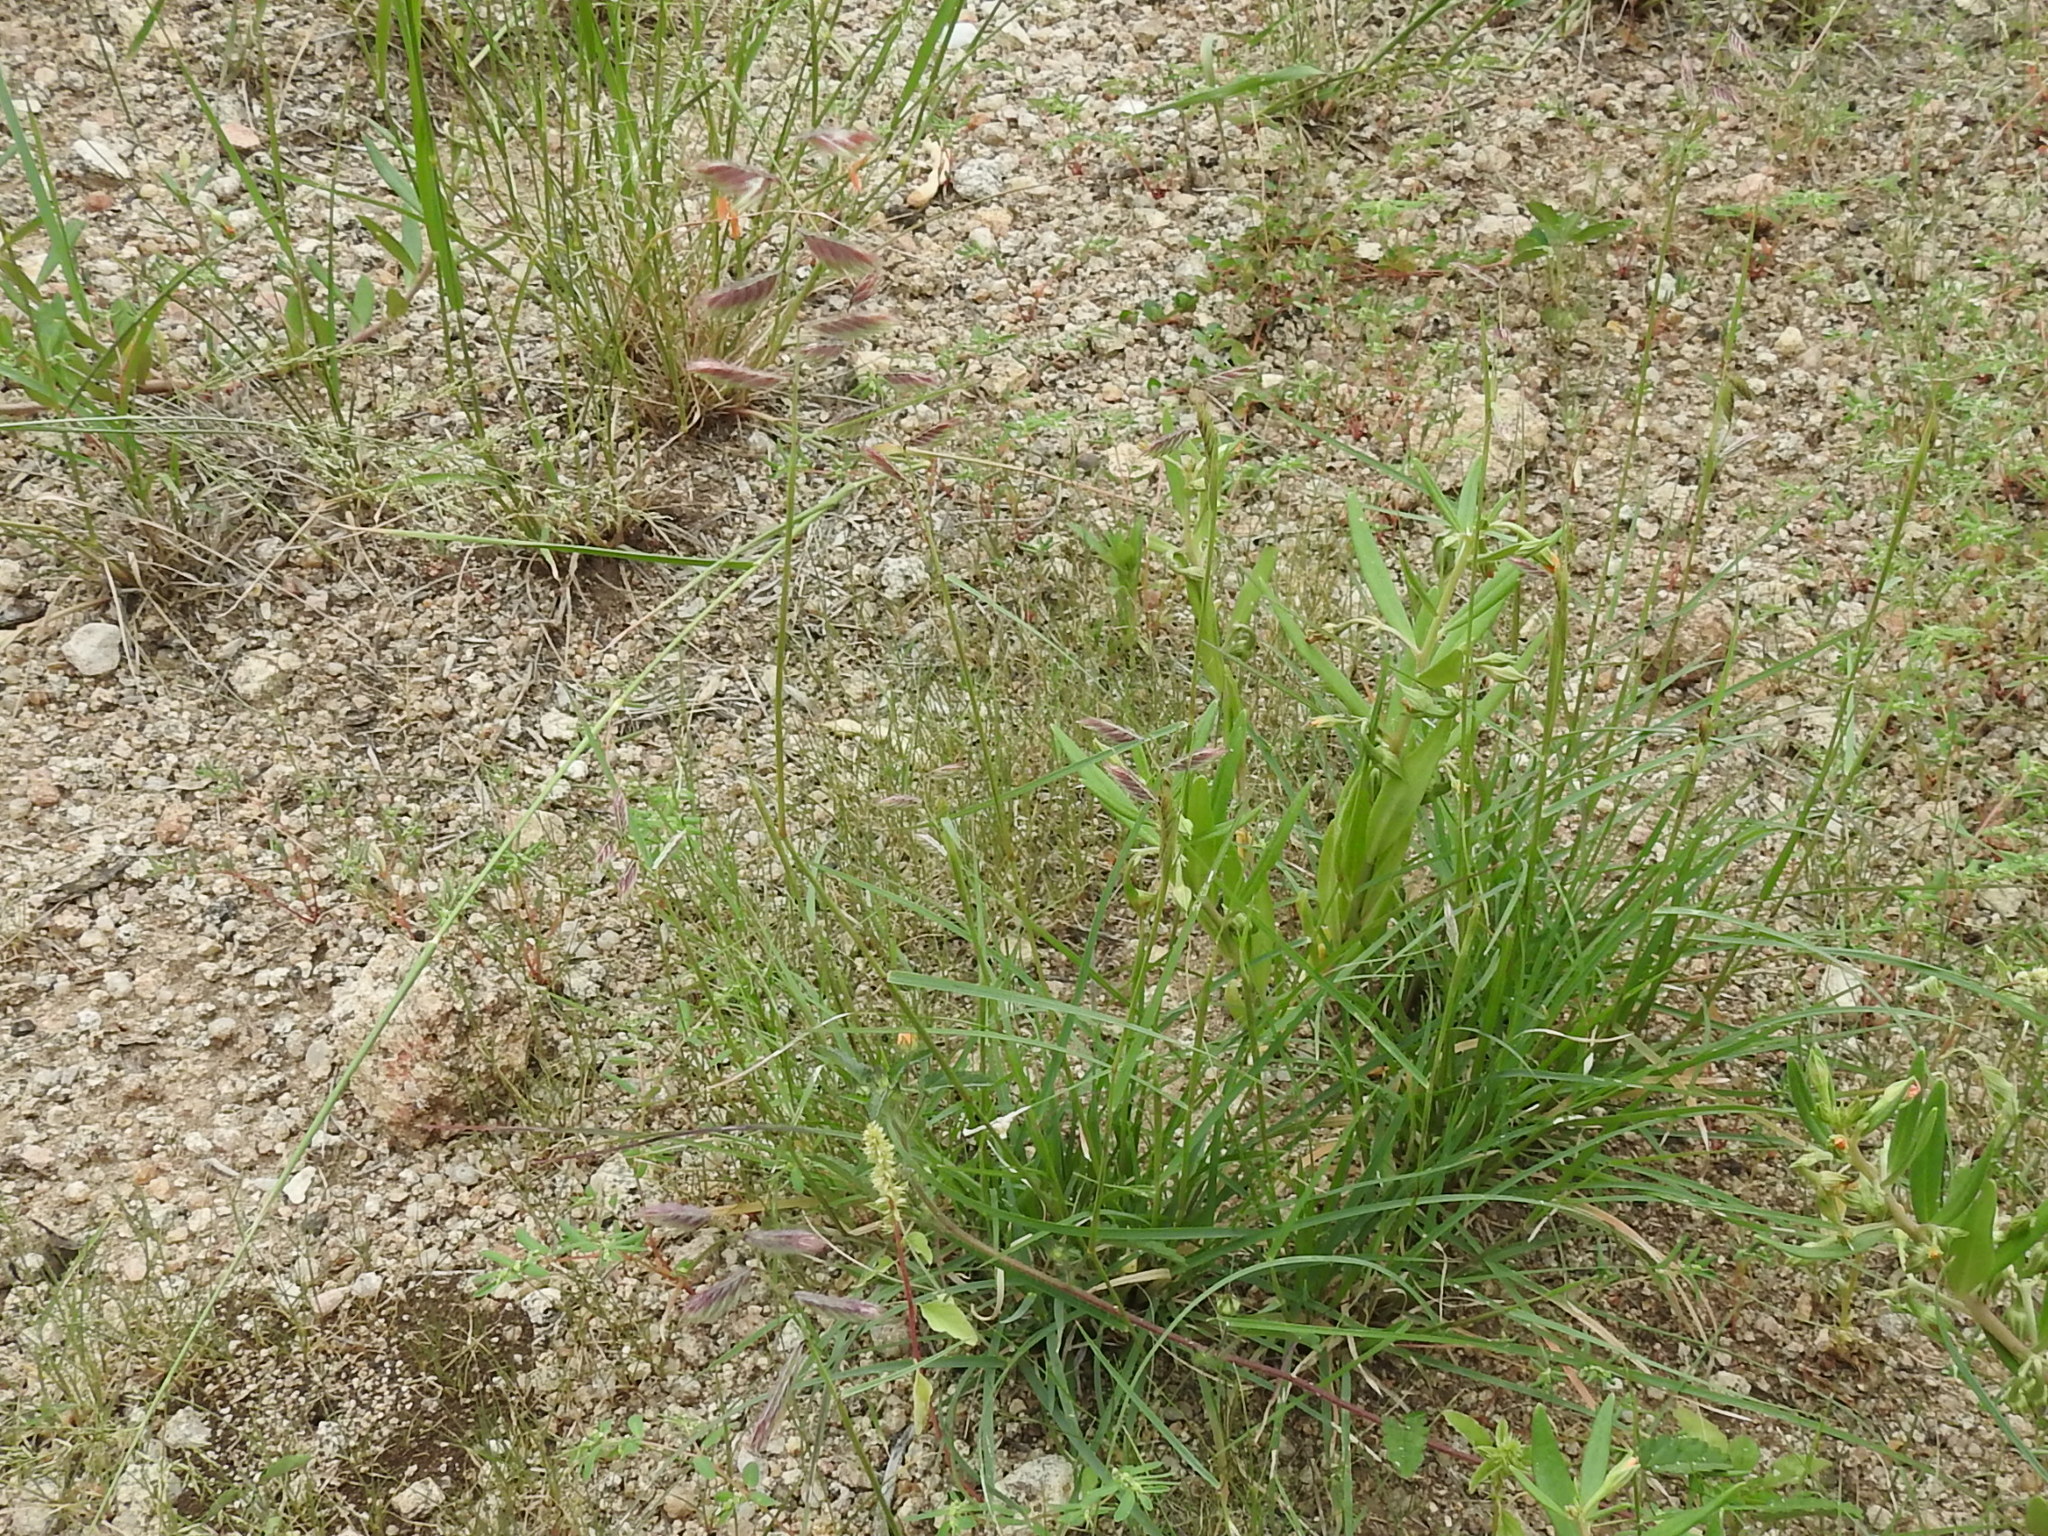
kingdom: Plantae
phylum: Tracheophyta
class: Liliopsida
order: Poales
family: Poaceae
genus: Bouteloua
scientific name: Bouteloua chondrosioides
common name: Sprucetop grama
